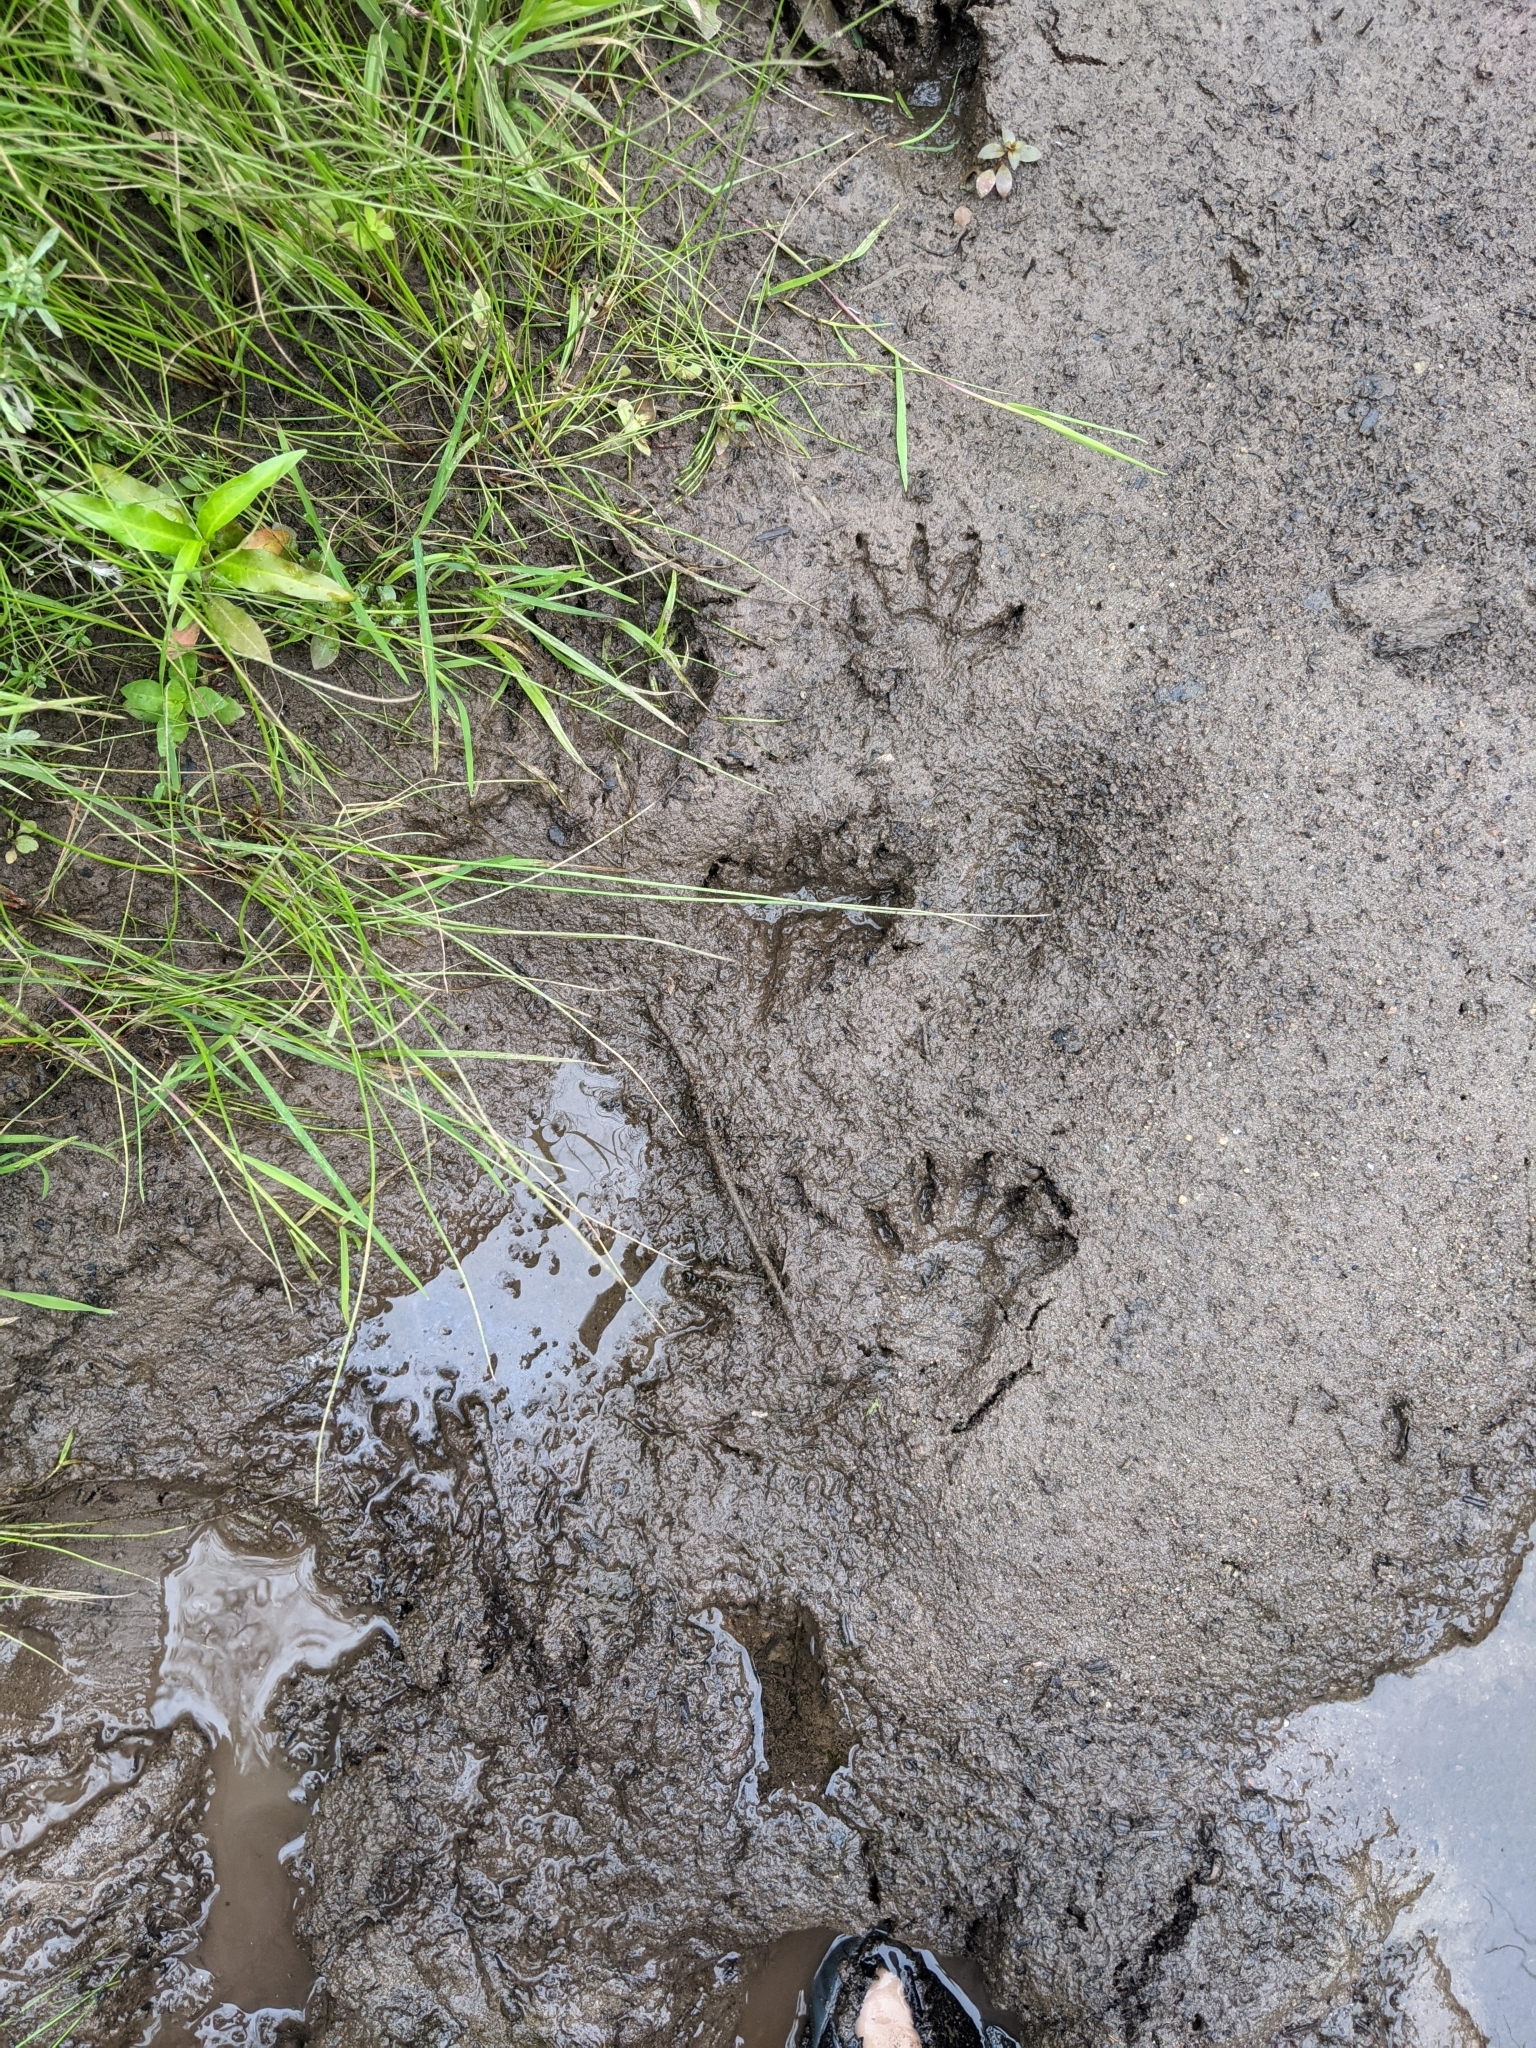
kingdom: Animalia
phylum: Chordata
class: Mammalia
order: Carnivora
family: Procyonidae
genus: Procyon
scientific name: Procyon lotor
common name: Raccoon
